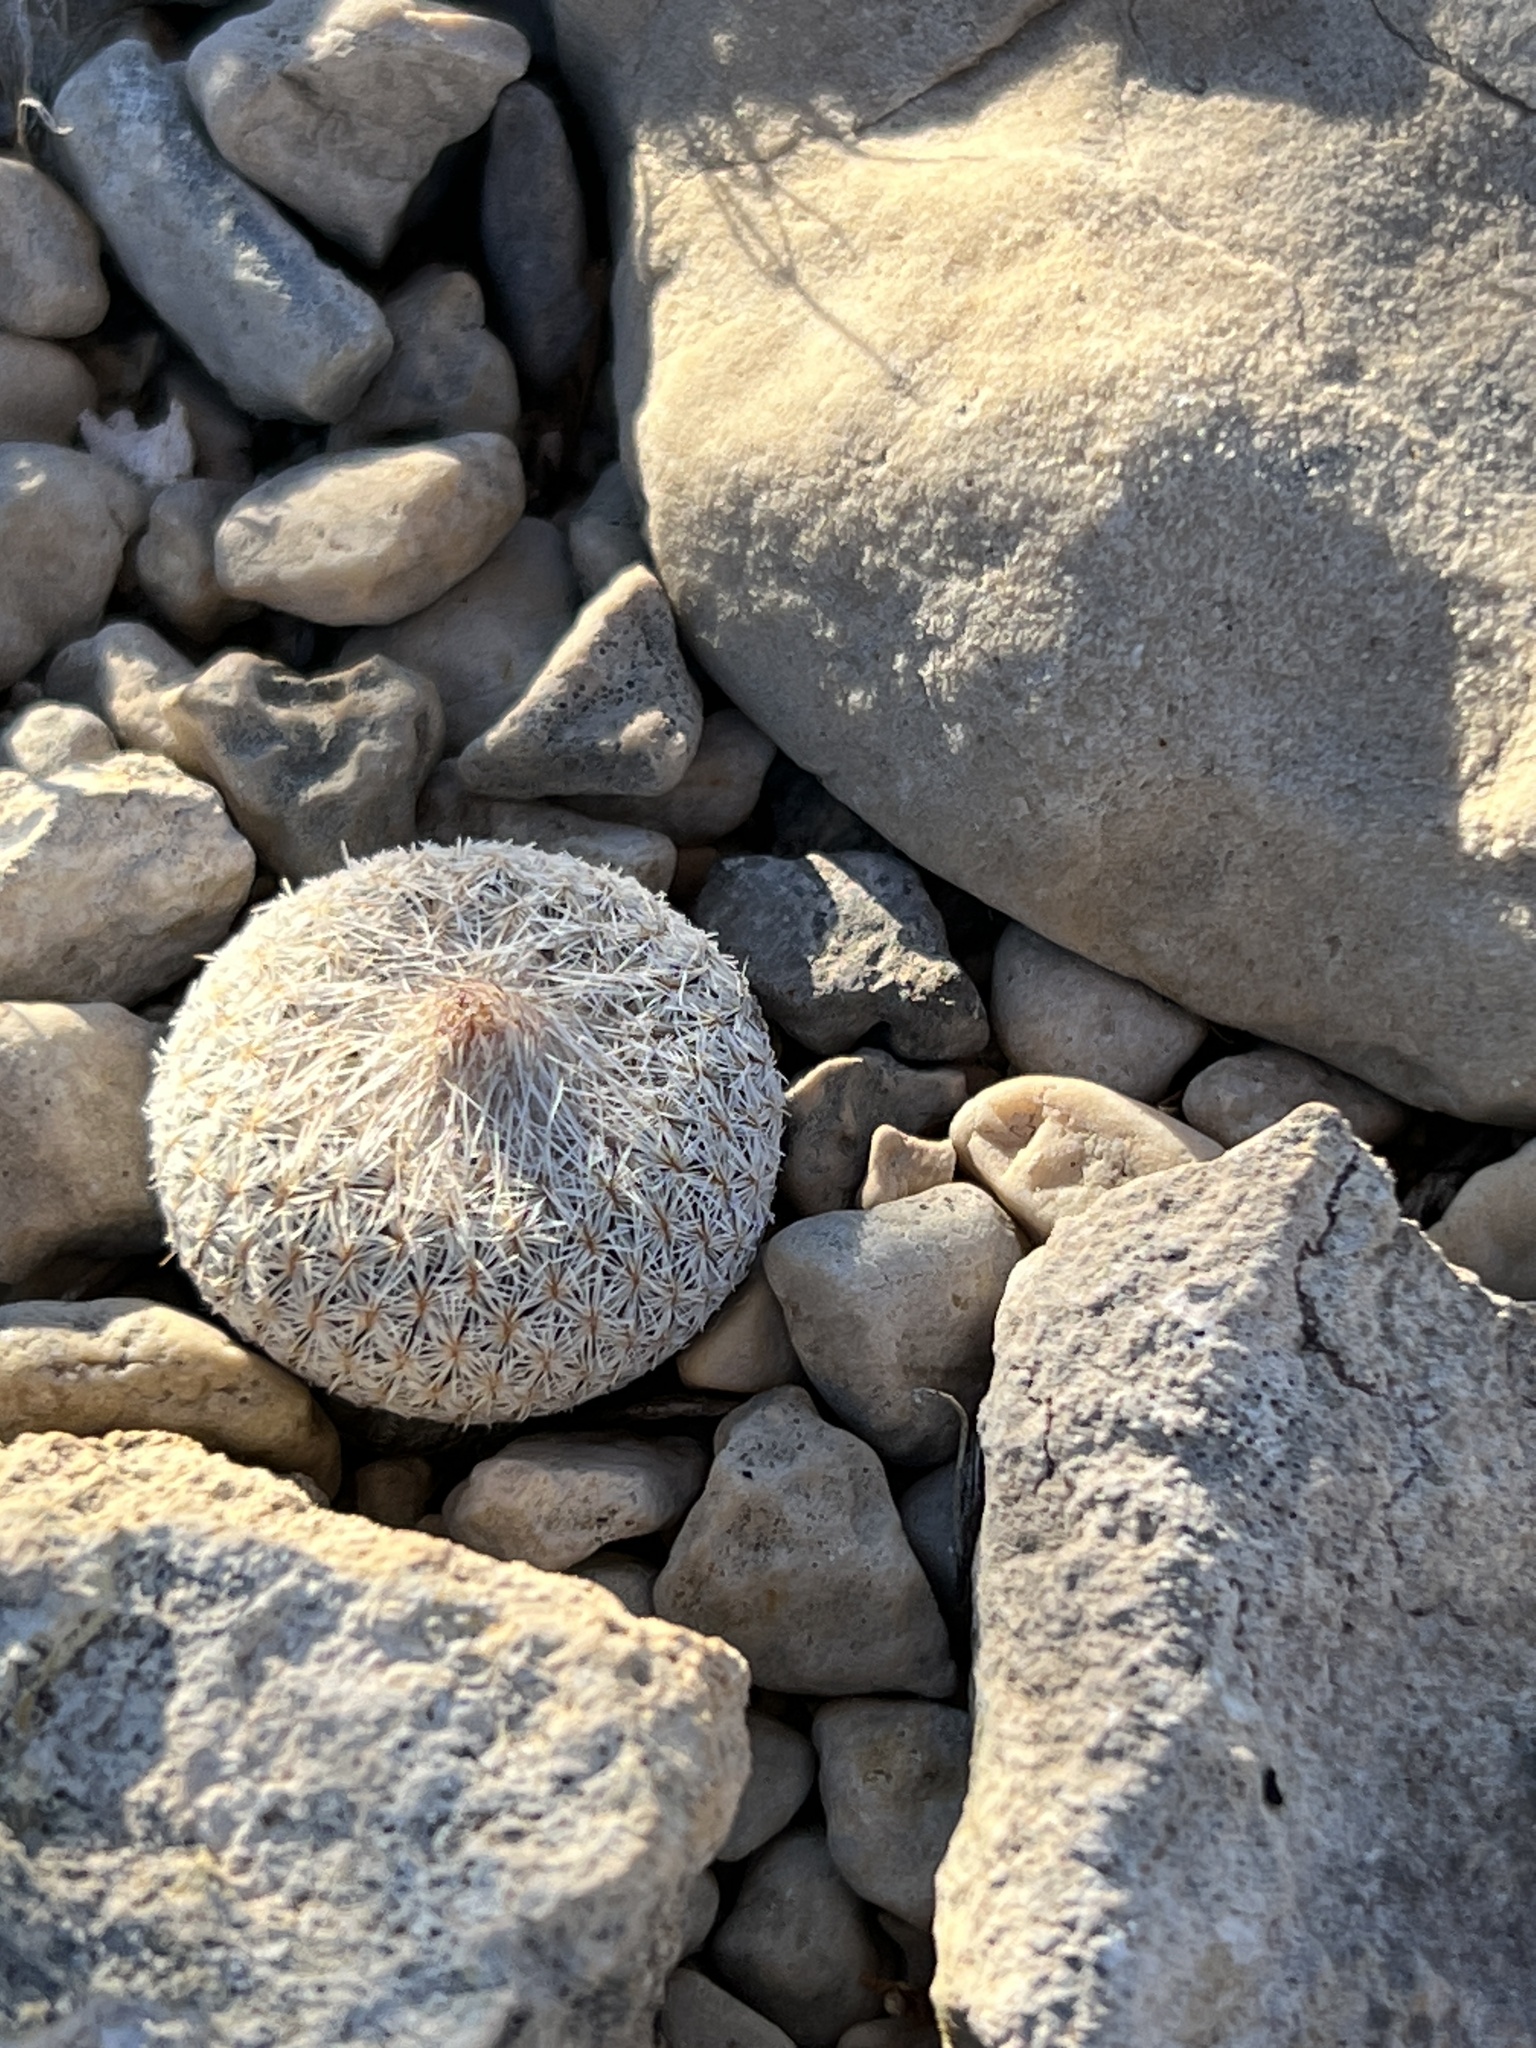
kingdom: Plantae
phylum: Tracheophyta
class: Magnoliopsida
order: Caryophyllales
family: Cactaceae
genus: Epithelantha
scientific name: Epithelantha micromeris
